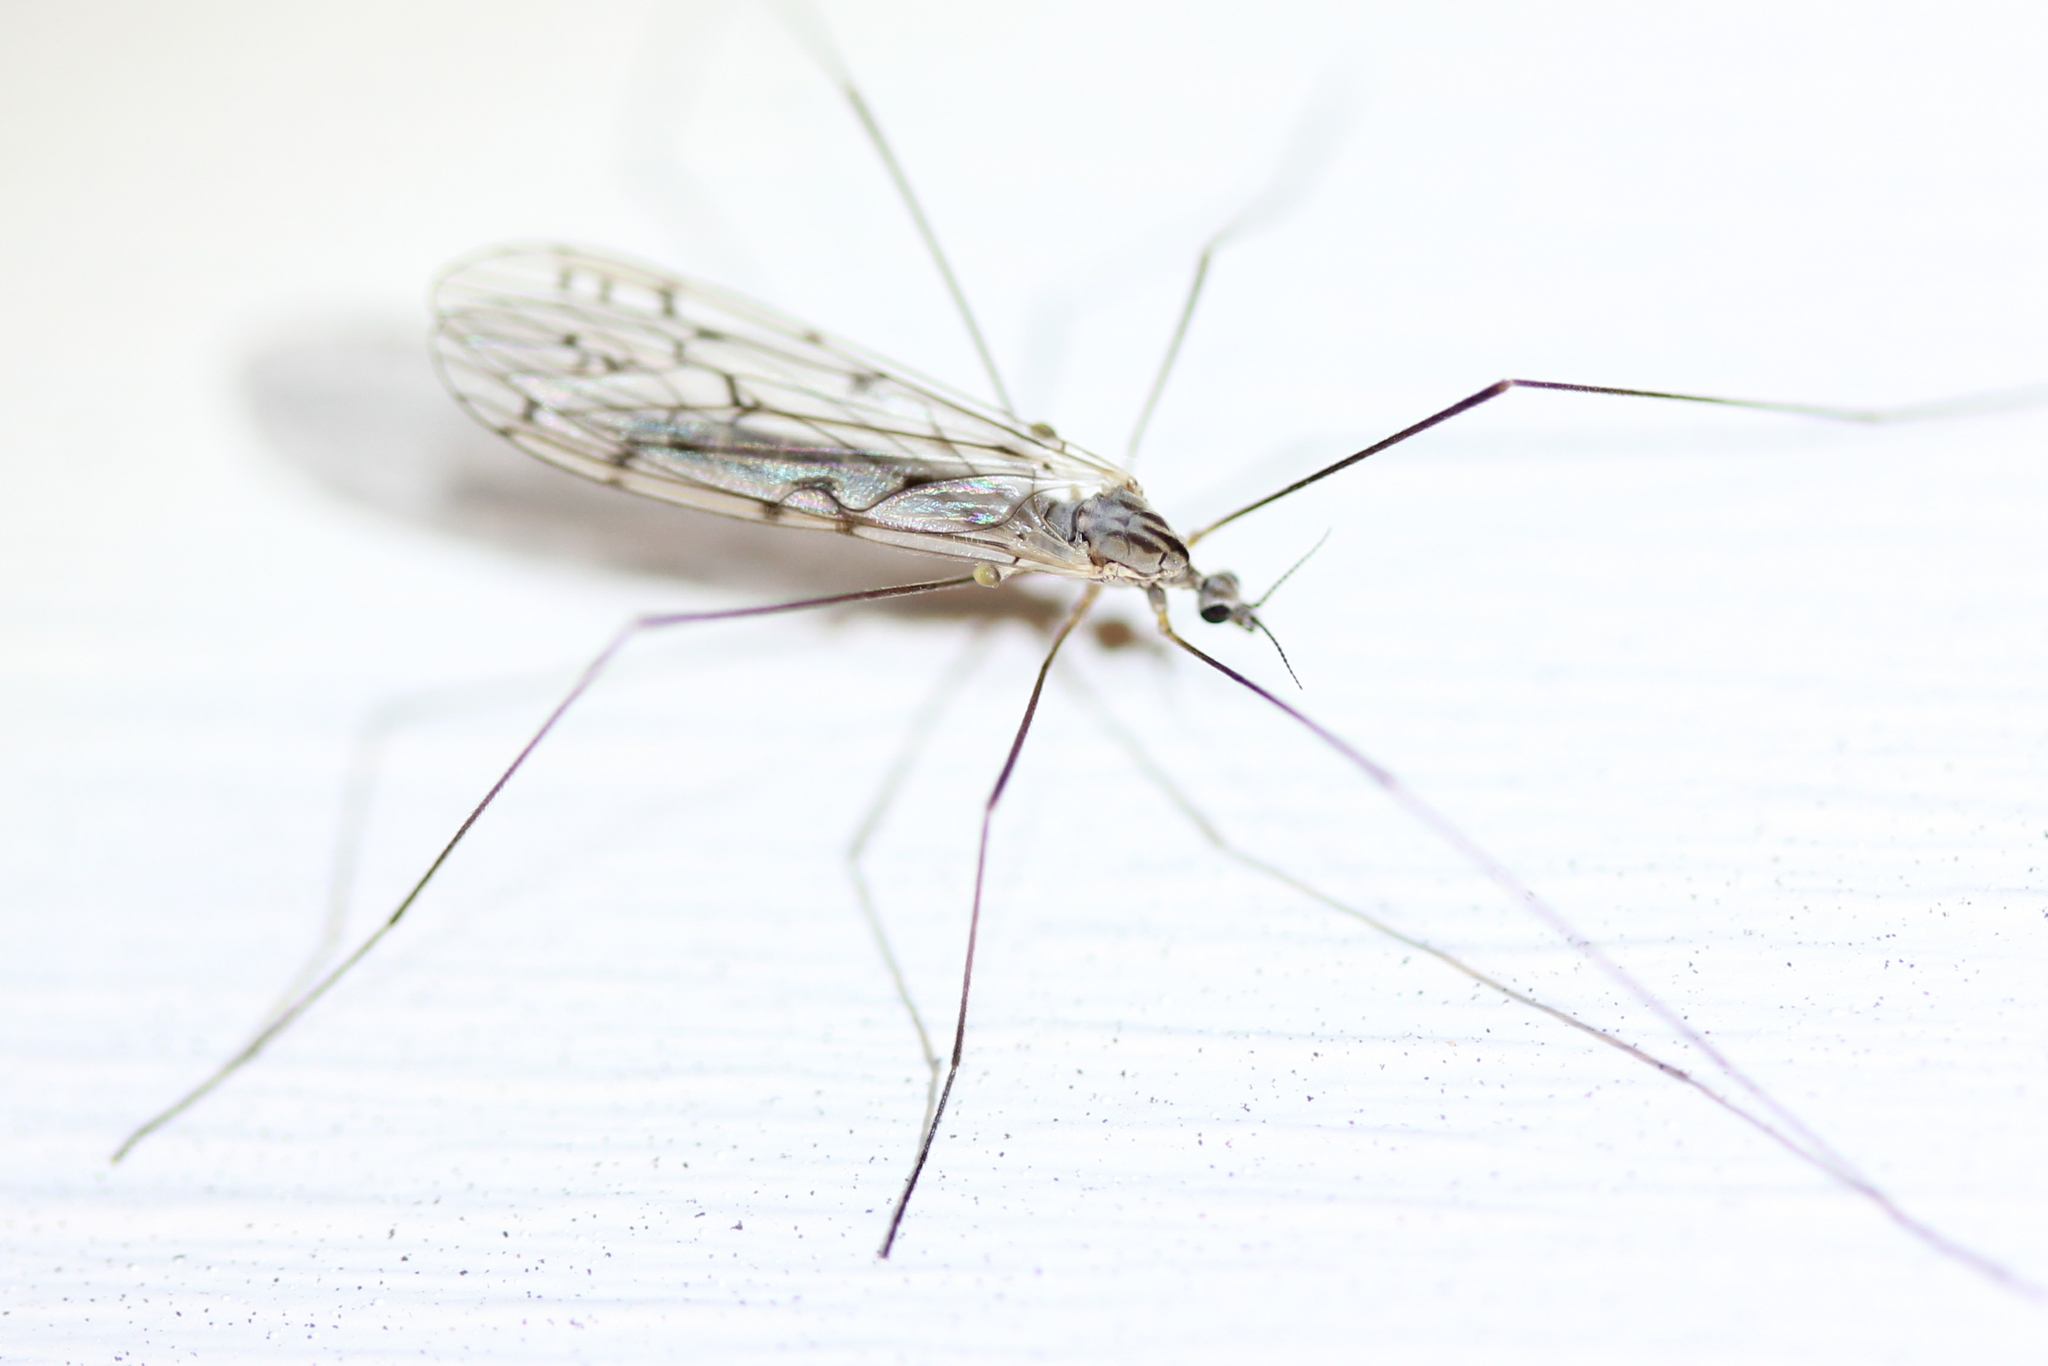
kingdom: Animalia
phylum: Arthropoda
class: Insecta
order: Diptera
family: Limoniidae
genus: Symplecta
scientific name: Symplecta cana
